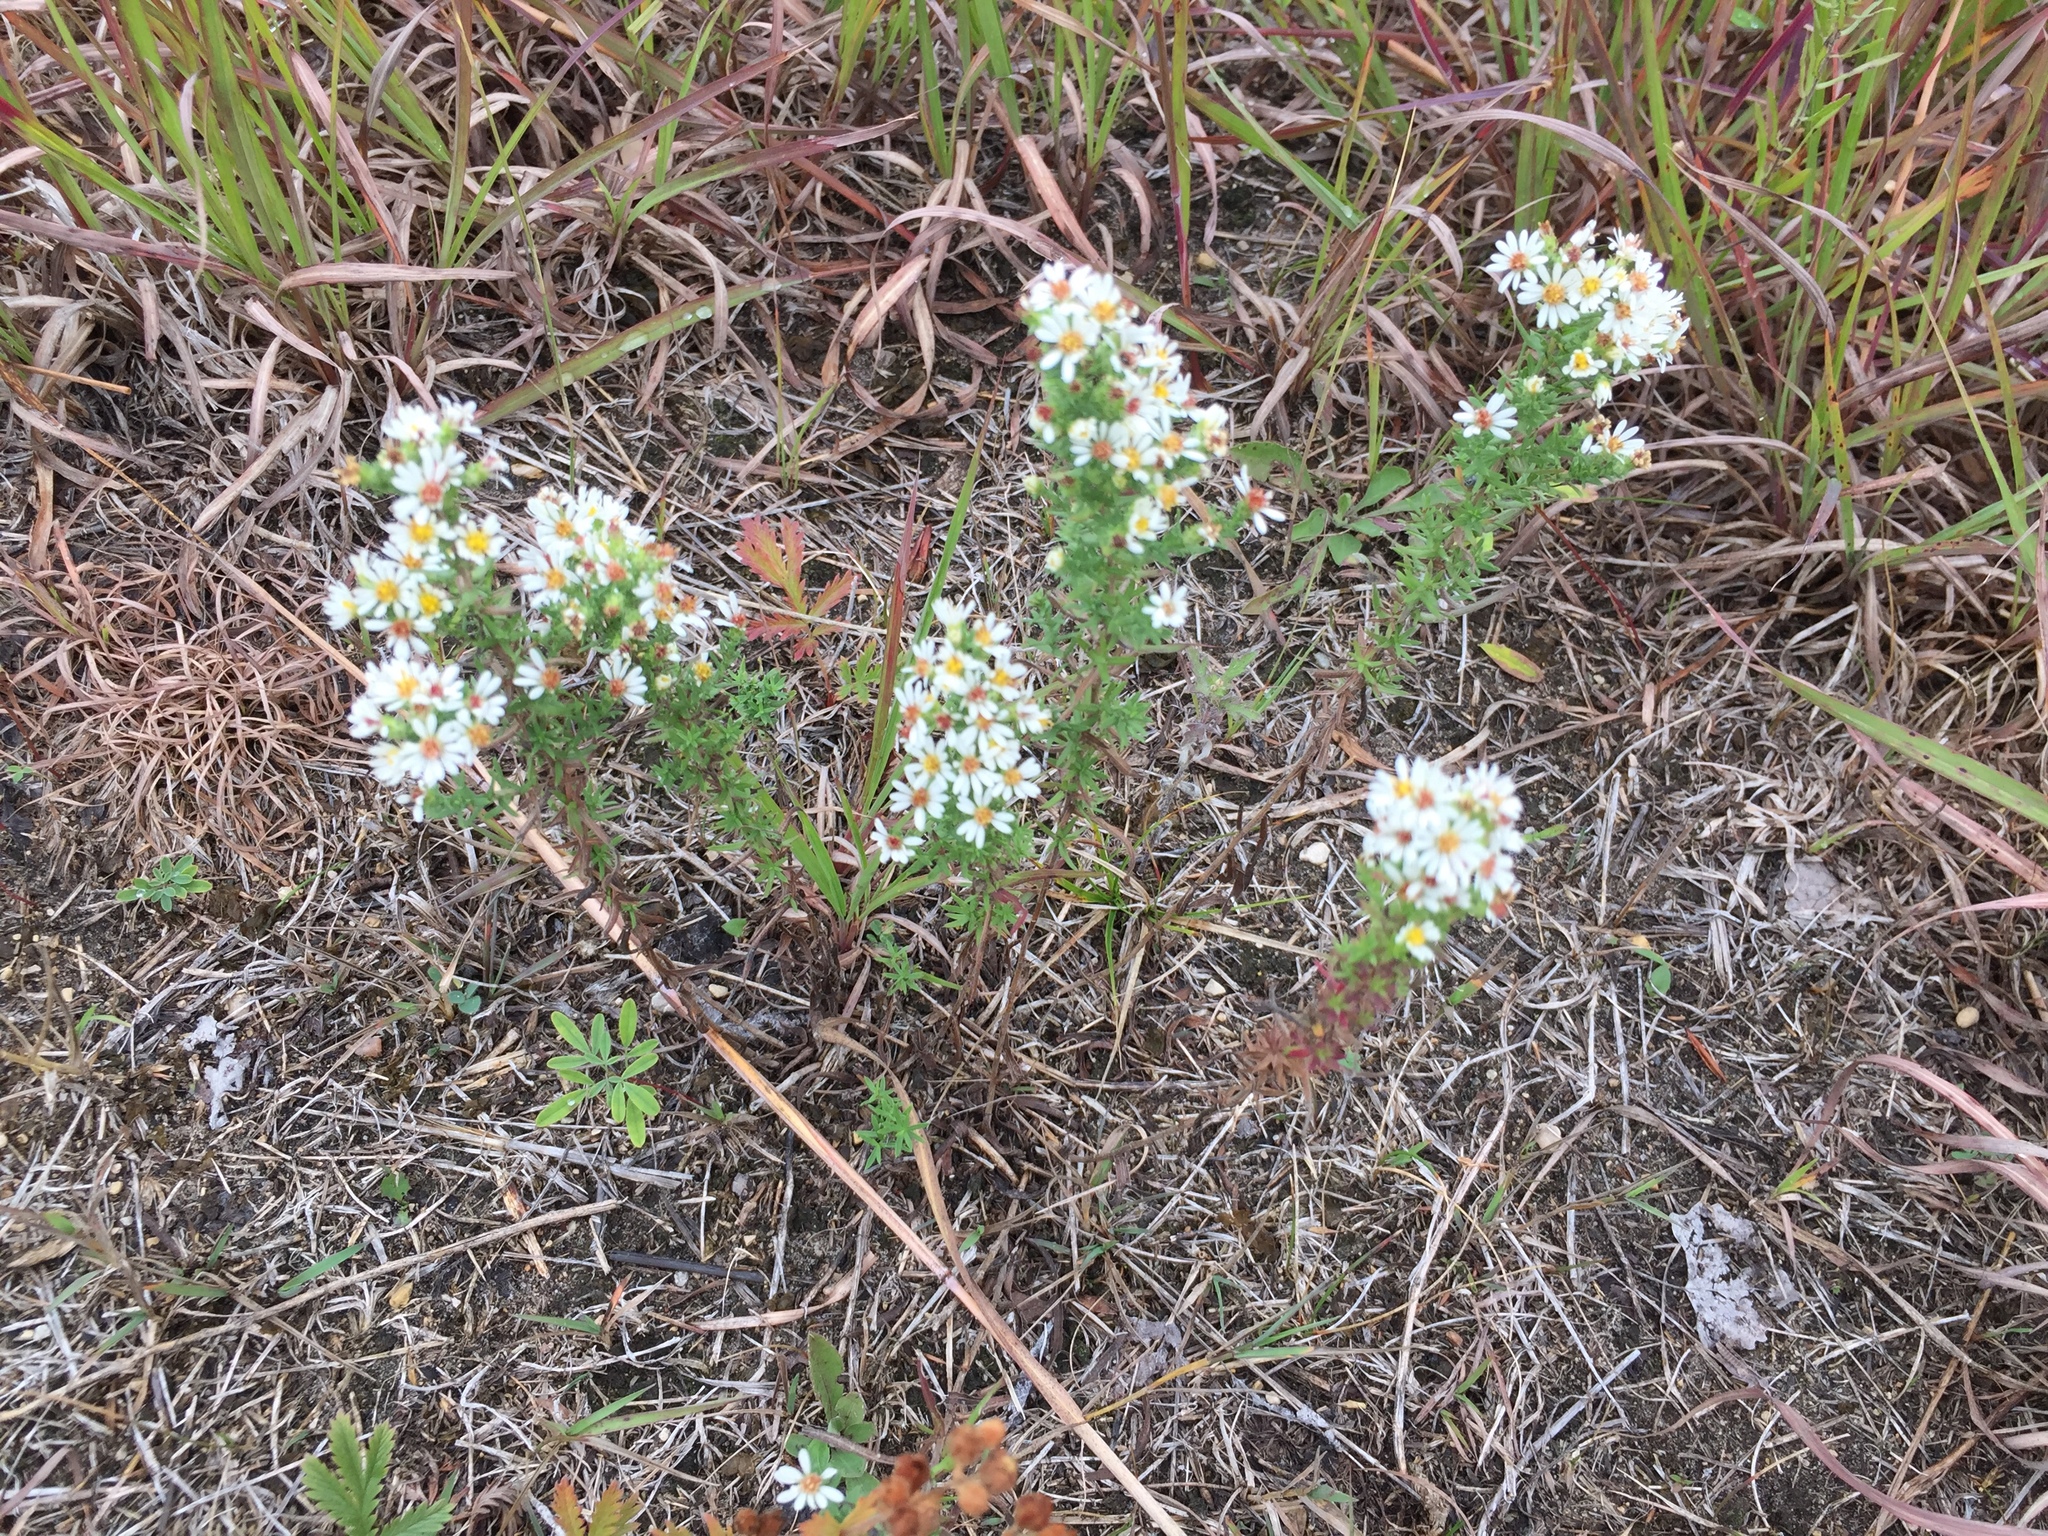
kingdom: Plantae
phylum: Tracheophyta
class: Magnoliopsida
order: Asterales
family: Asteraceae
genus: Symphyotrichum
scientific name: Symphyotrichum ericoides
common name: Heath aster
